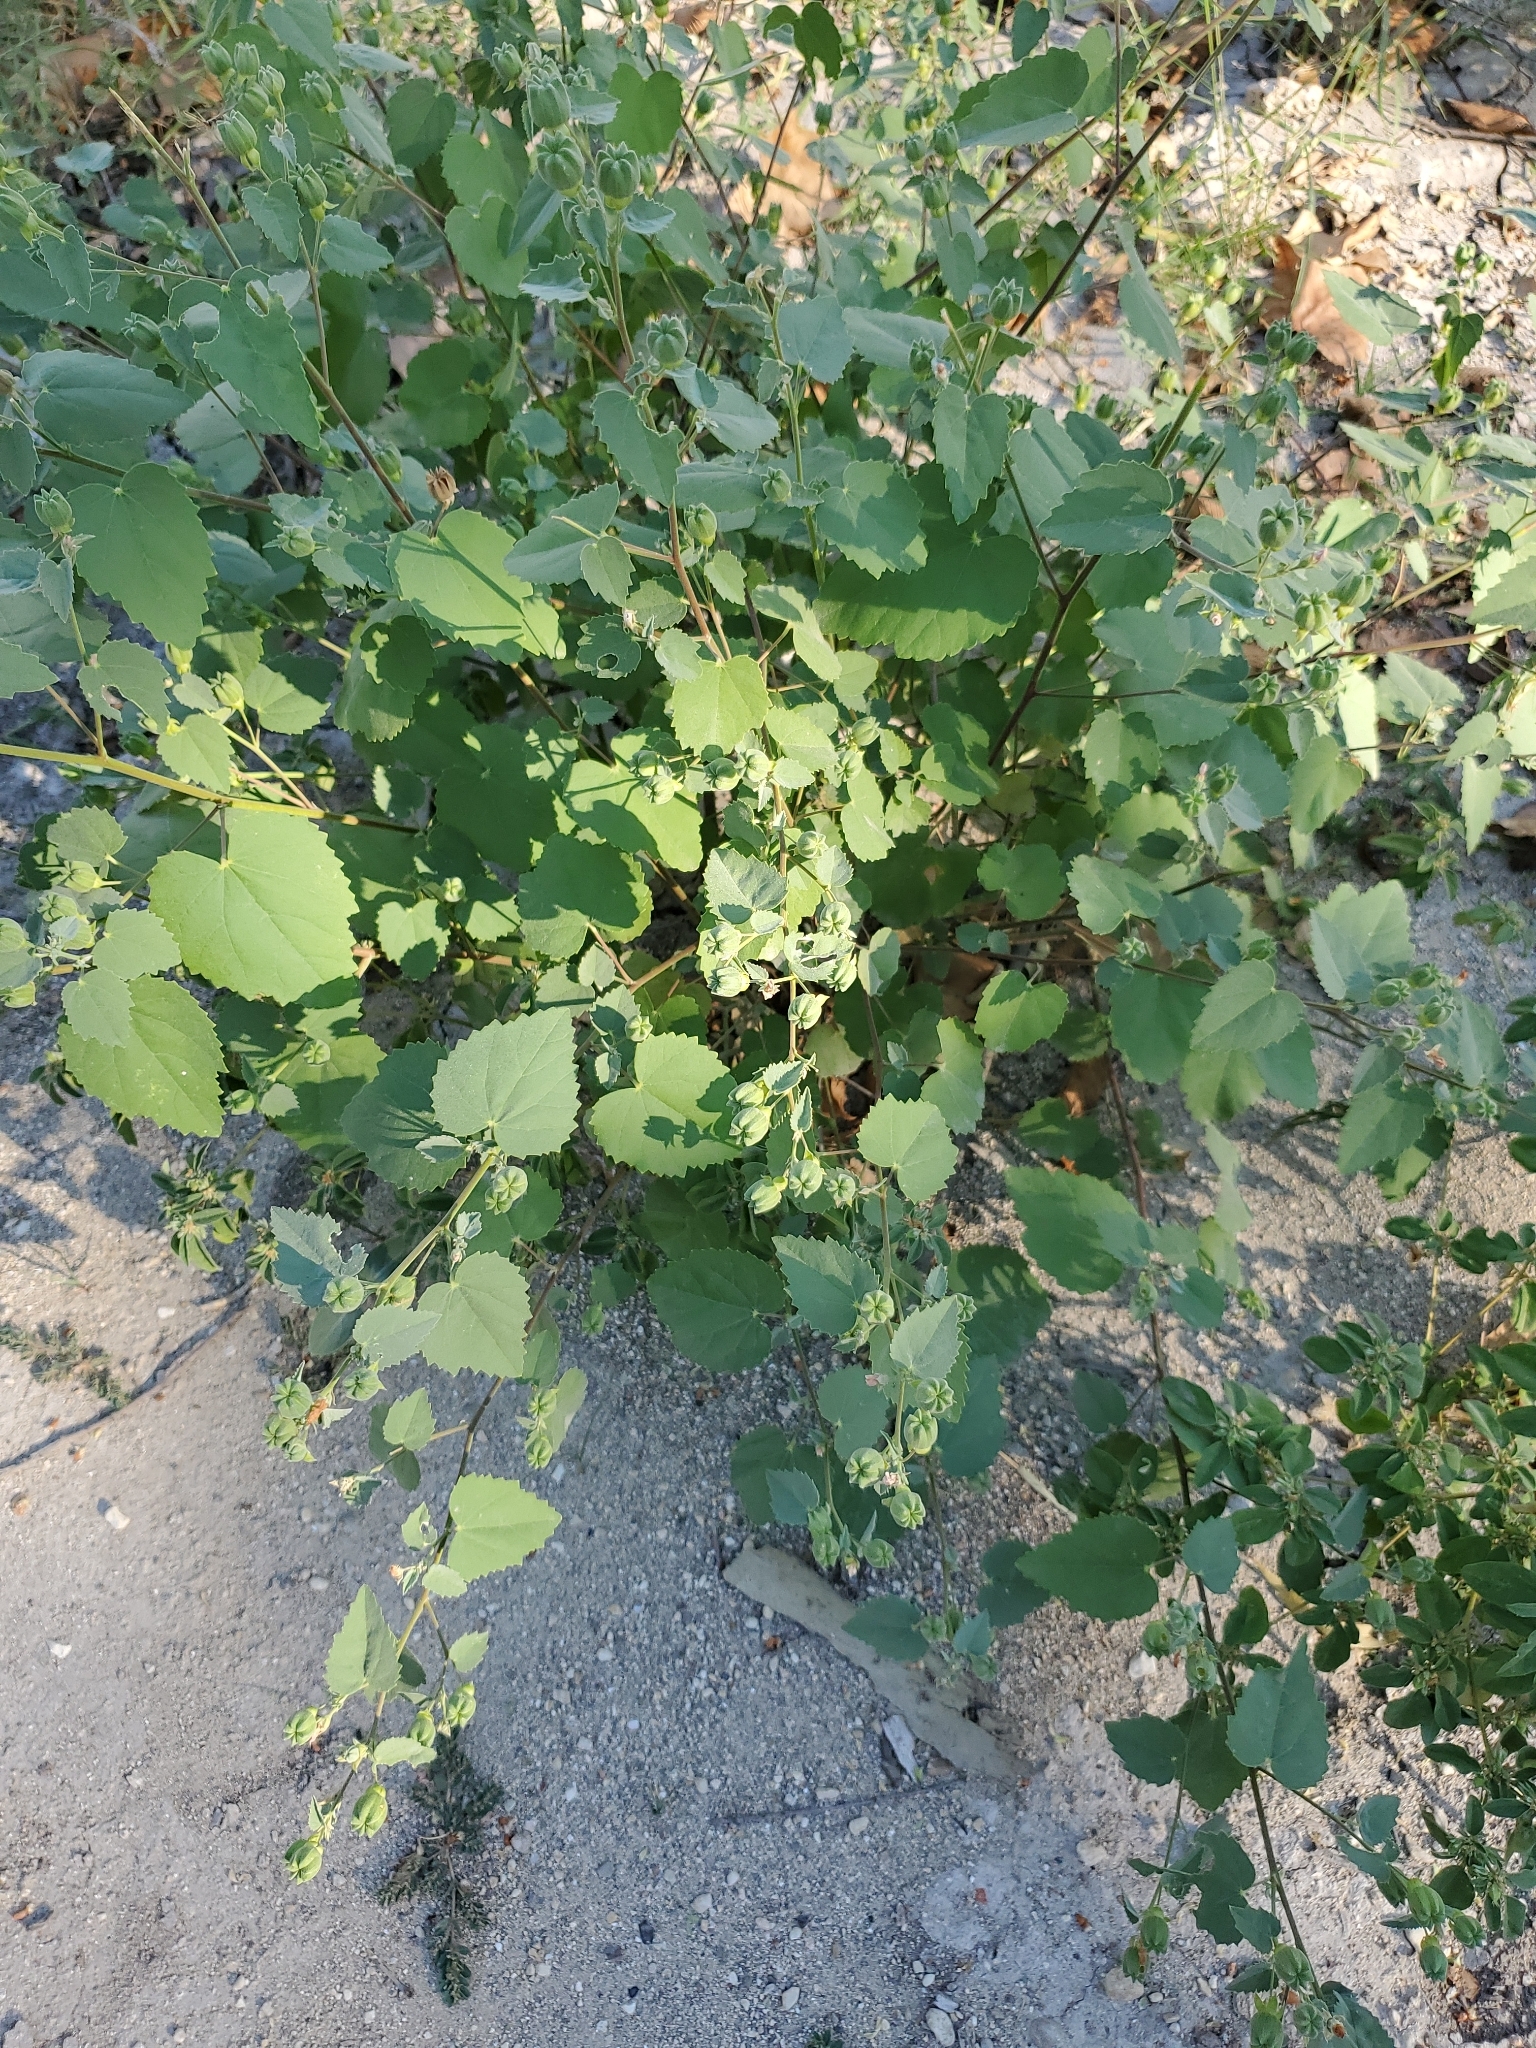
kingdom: Plantae
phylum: Tracheophyta
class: Magnoliopsida
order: Malvales
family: Malvaceae
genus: Abutilon
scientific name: Abutilon fruticosum
